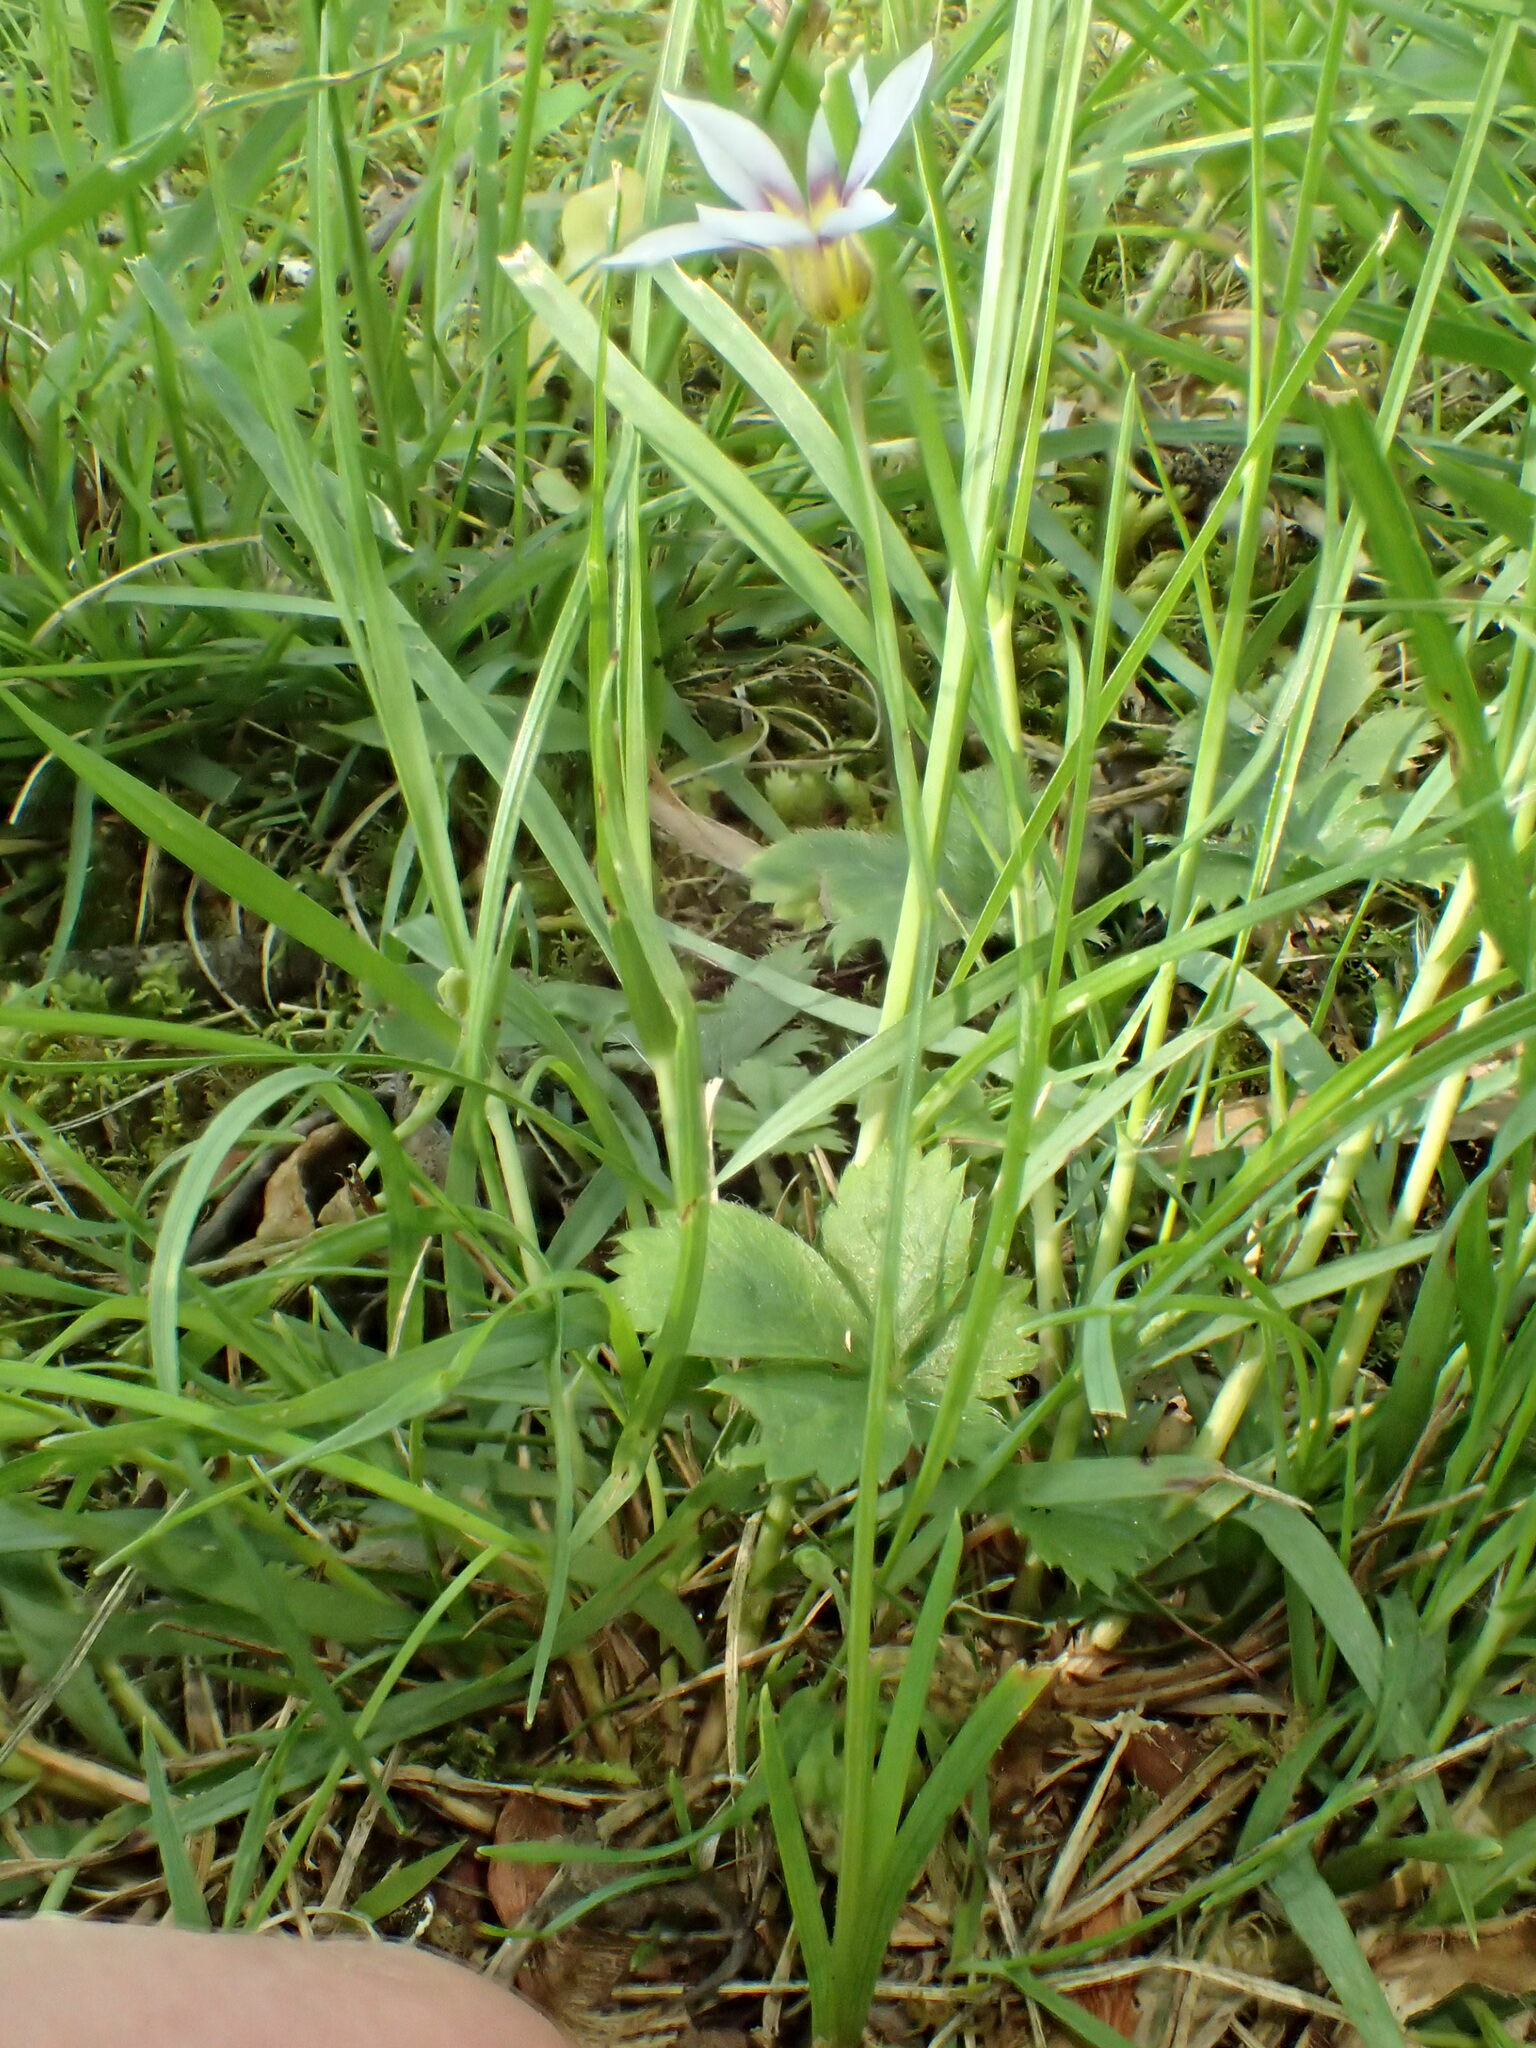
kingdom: Plantae
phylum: Tracheophyta
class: Liliopsida
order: Asparagales
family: Iridaceae
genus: Sisyrinchium
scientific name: Sisyrinchium micranthum
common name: Bermuda pigroot
